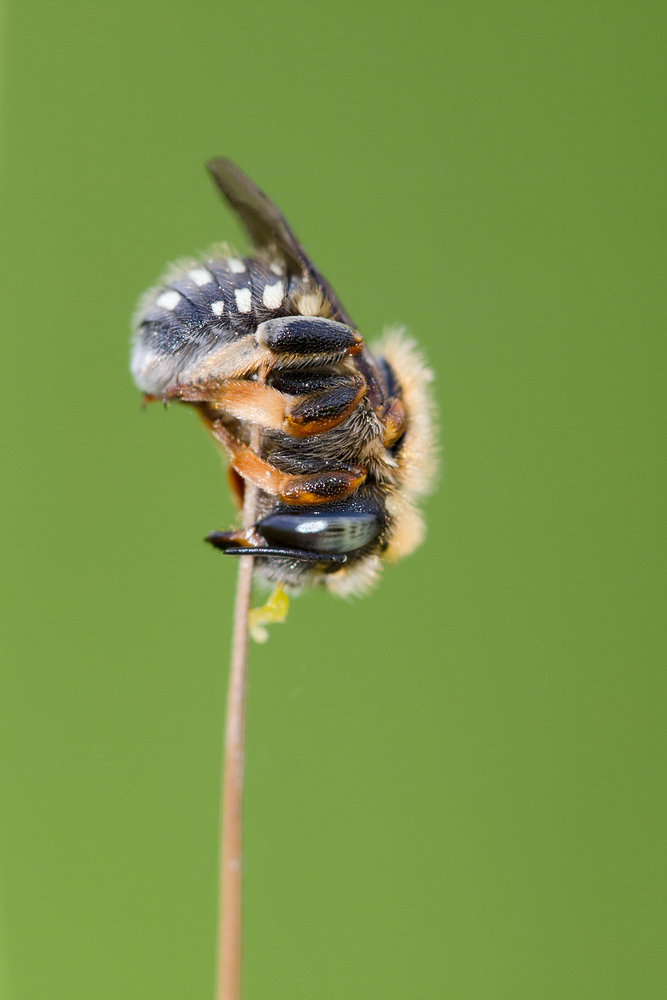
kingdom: Animalia
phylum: Arthropoda
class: Insecta
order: Hymenoptera
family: Megachilidae
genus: Anthidium
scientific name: Anthidium punctatum
